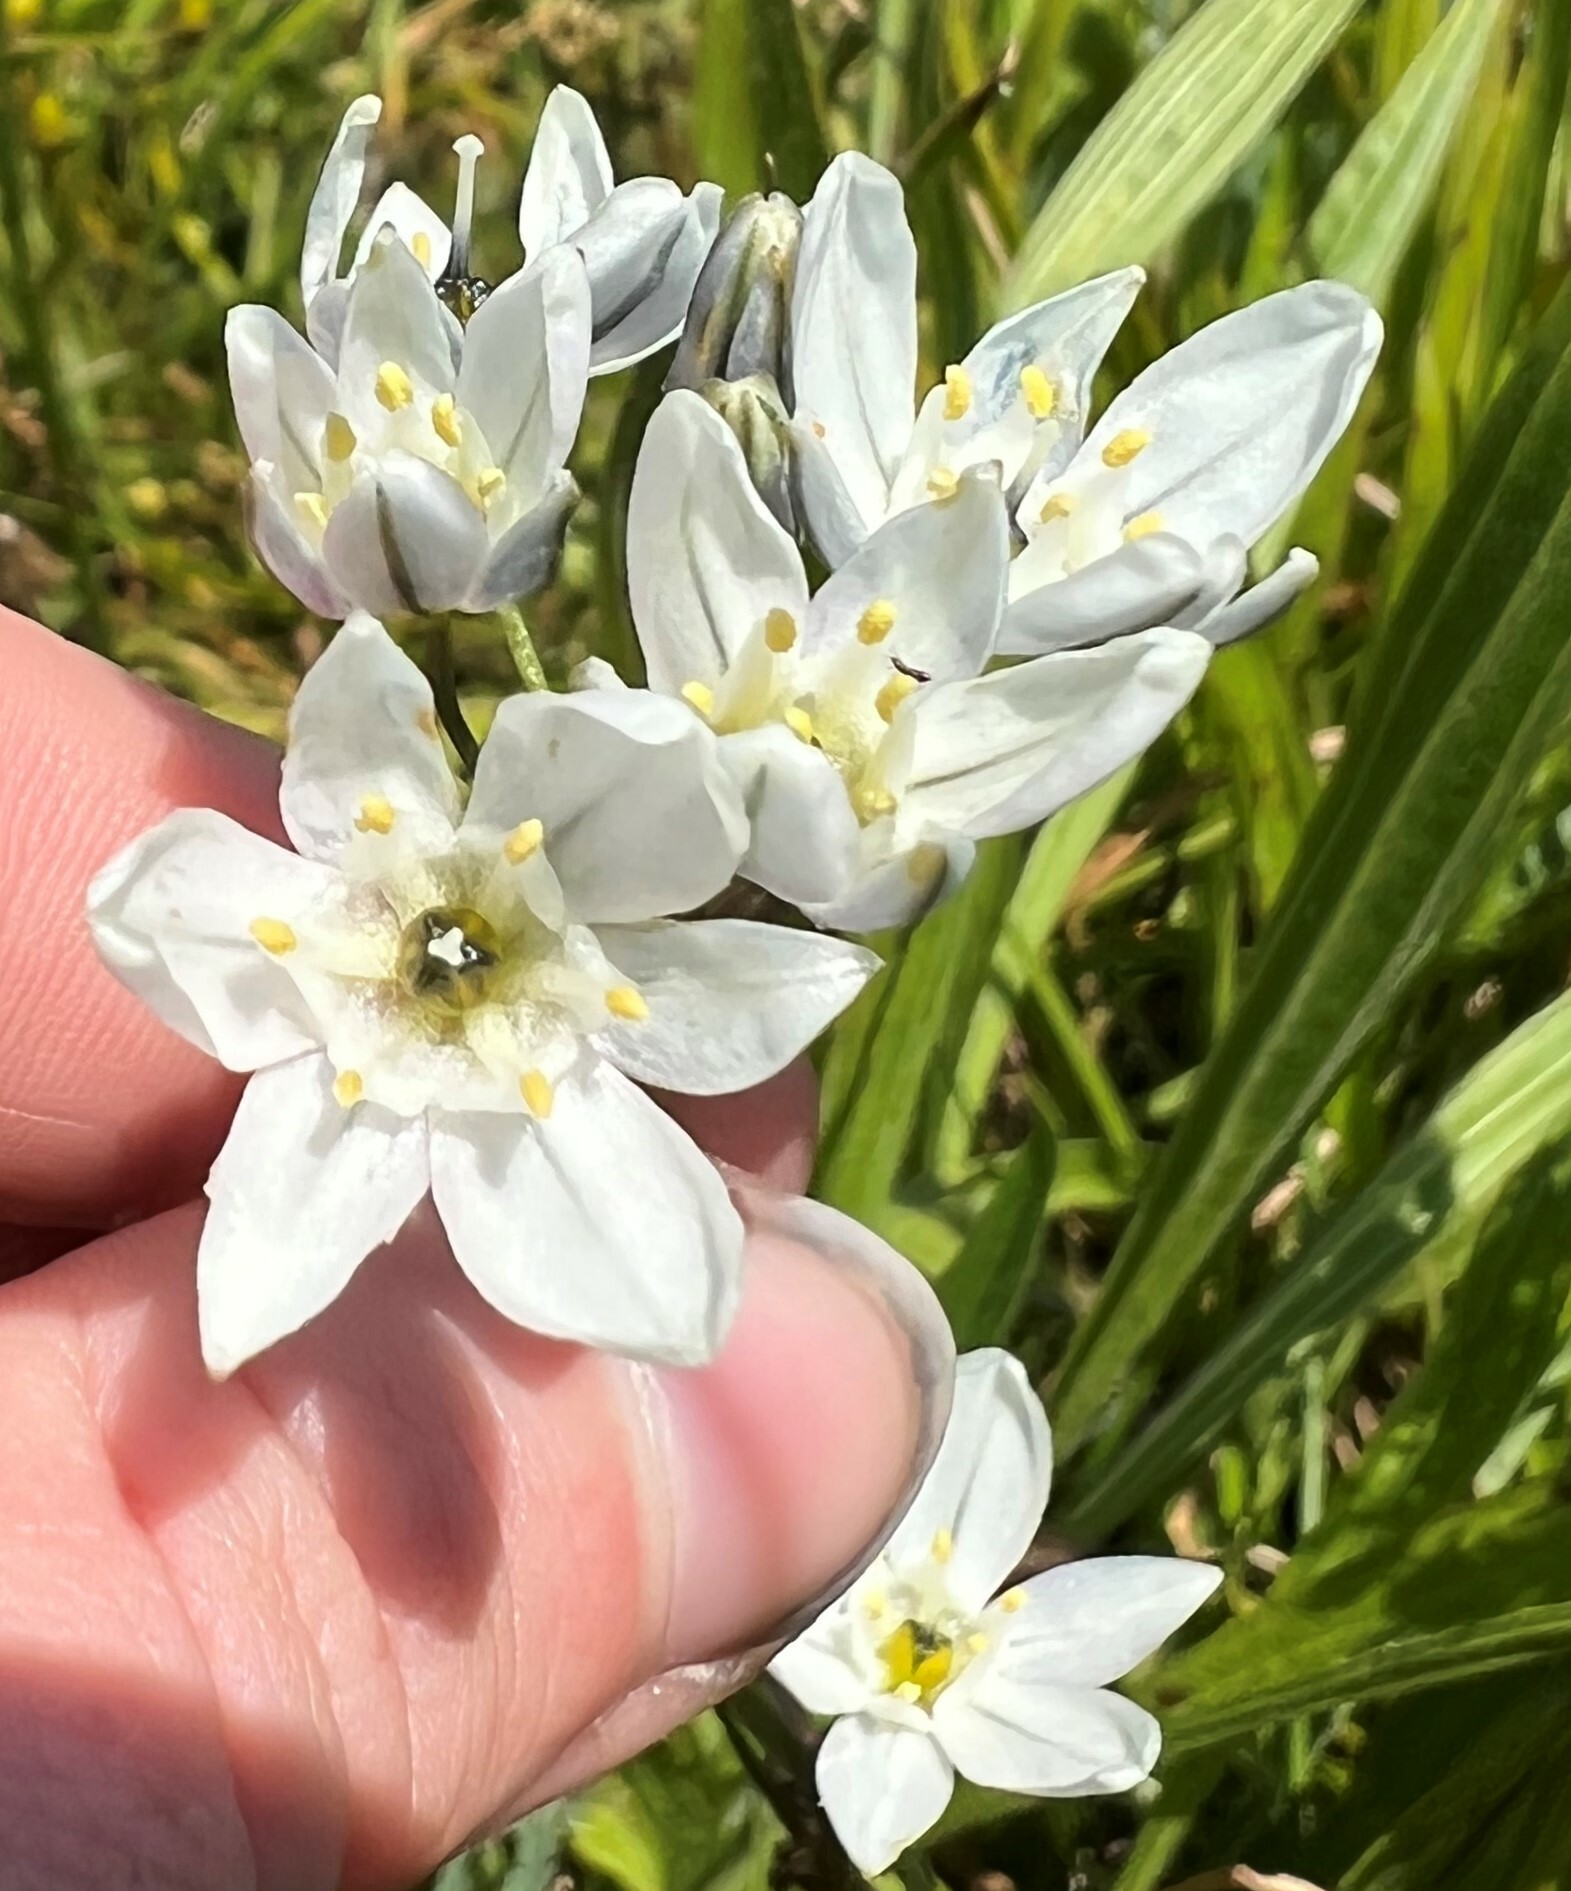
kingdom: Plantae
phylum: Tracheophyta
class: Liliopsida
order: Asparagales
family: Asparagaceae
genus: Triteleia
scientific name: Triteleia hyacinthina
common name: White brodiaea
